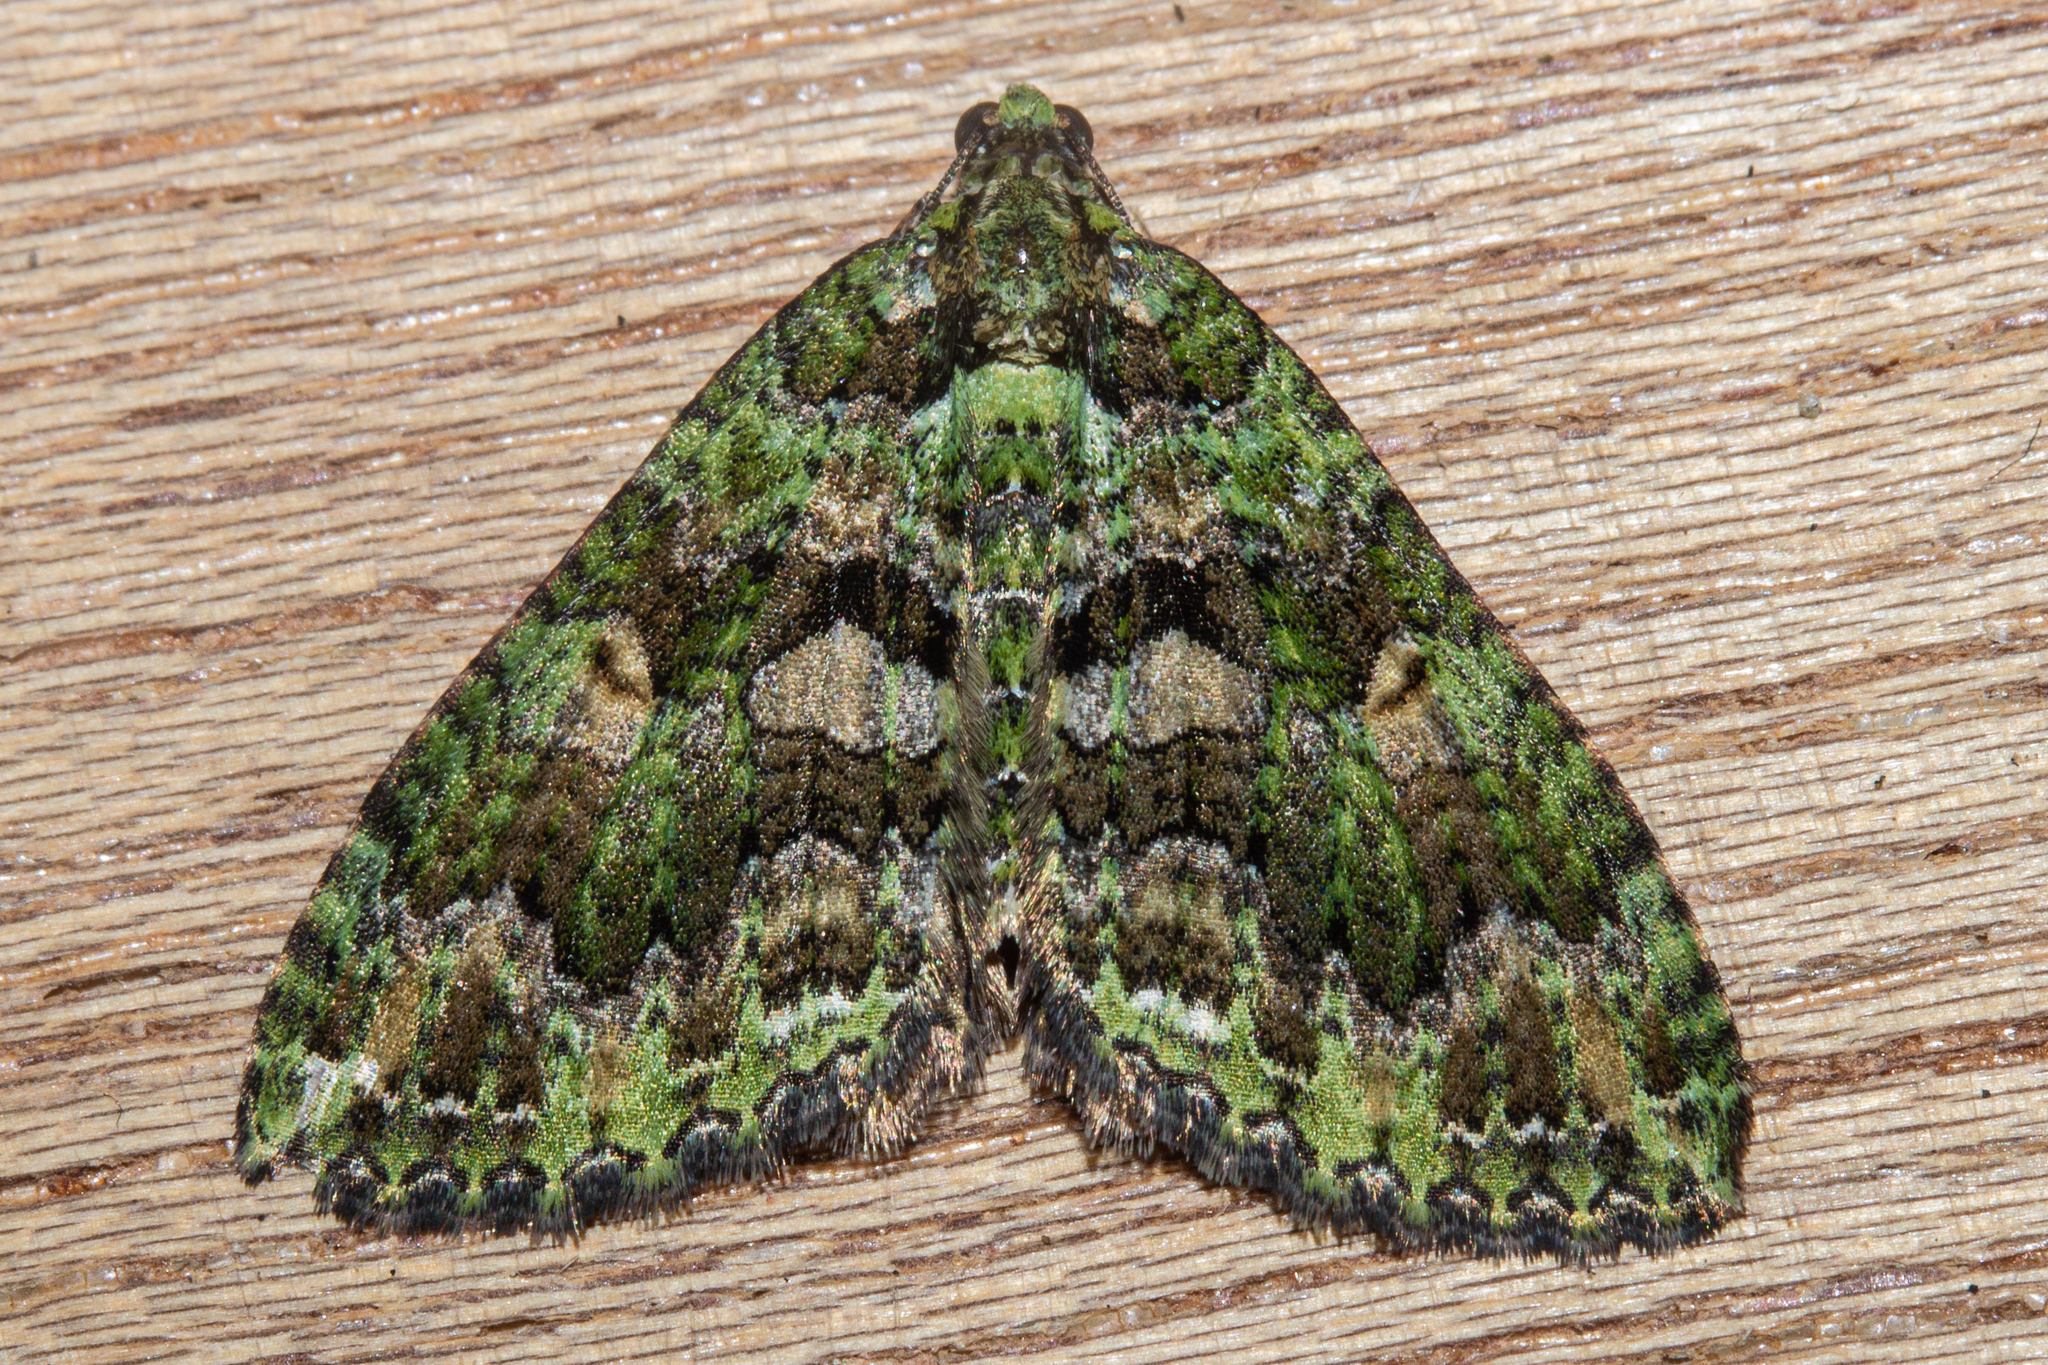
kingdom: Animalia
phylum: Arthropoda
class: Insecta
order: Lepidoptera
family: Geometridae
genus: Austrocidaria
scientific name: Austrocidaria similata
